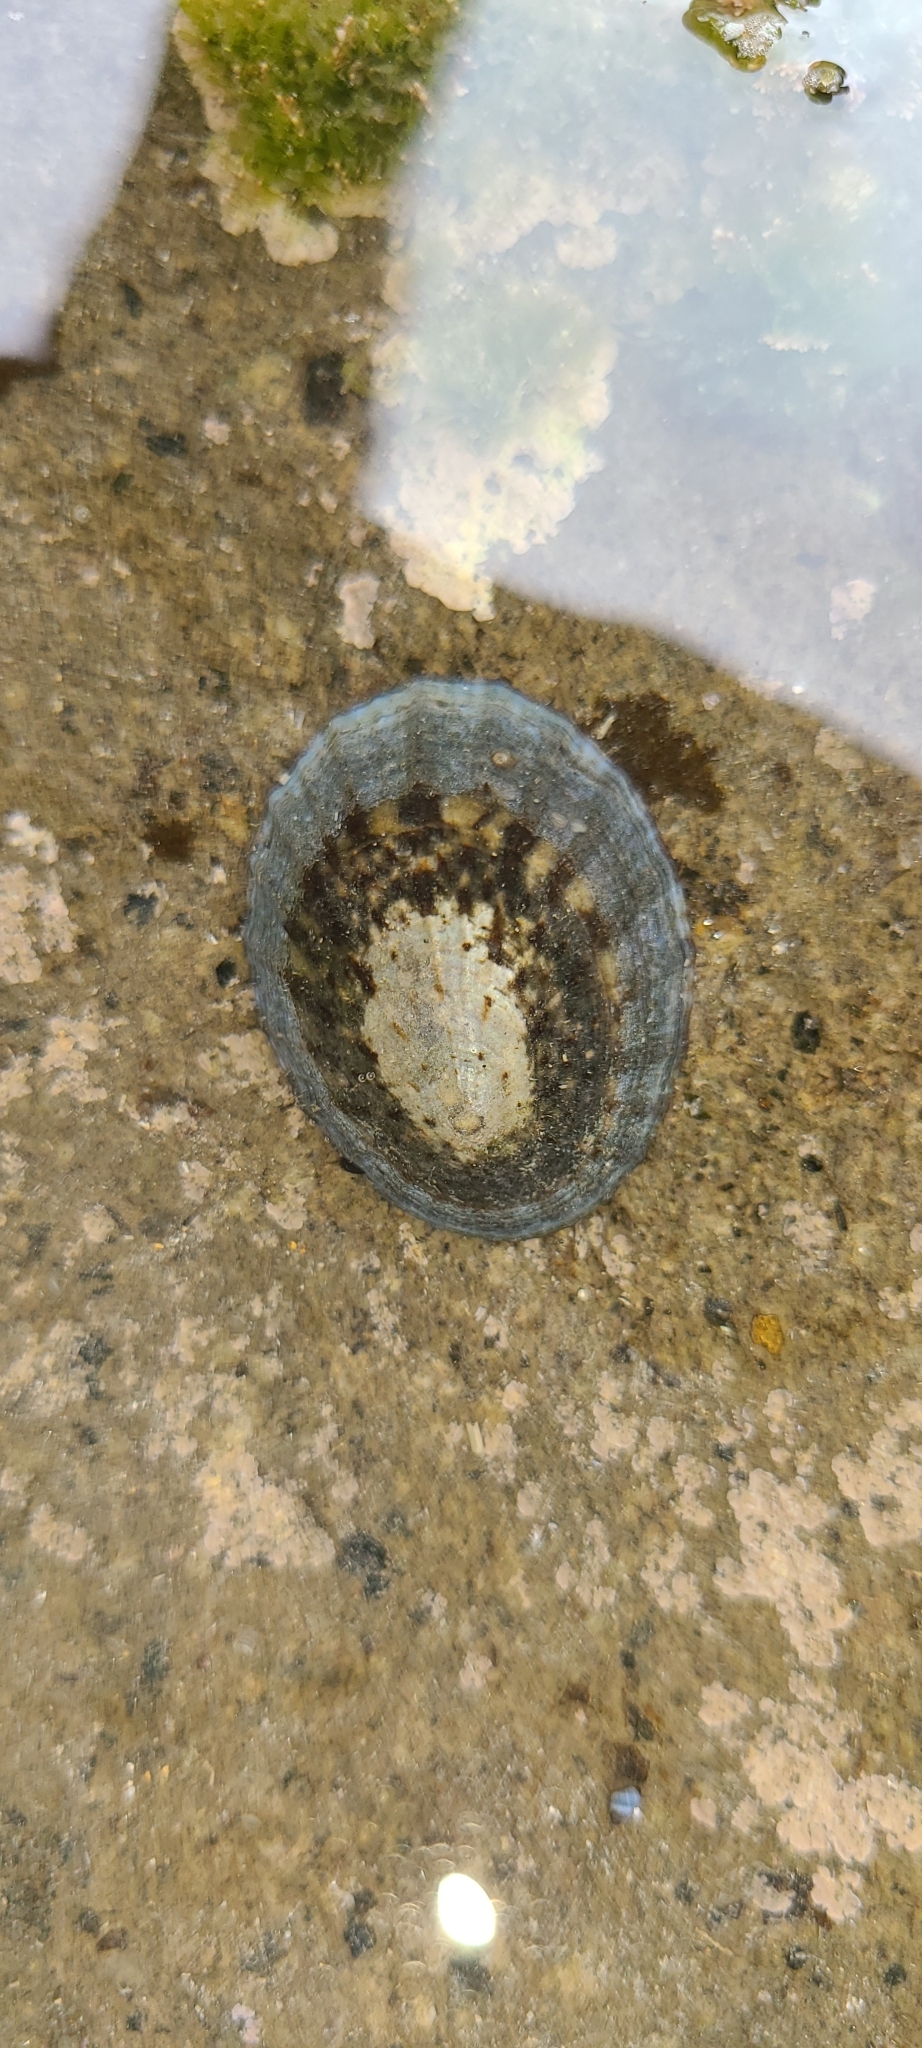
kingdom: Animalia
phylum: Mollusca
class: Gastropoda
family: Nacellidae
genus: Cellana
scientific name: Cellana radians
